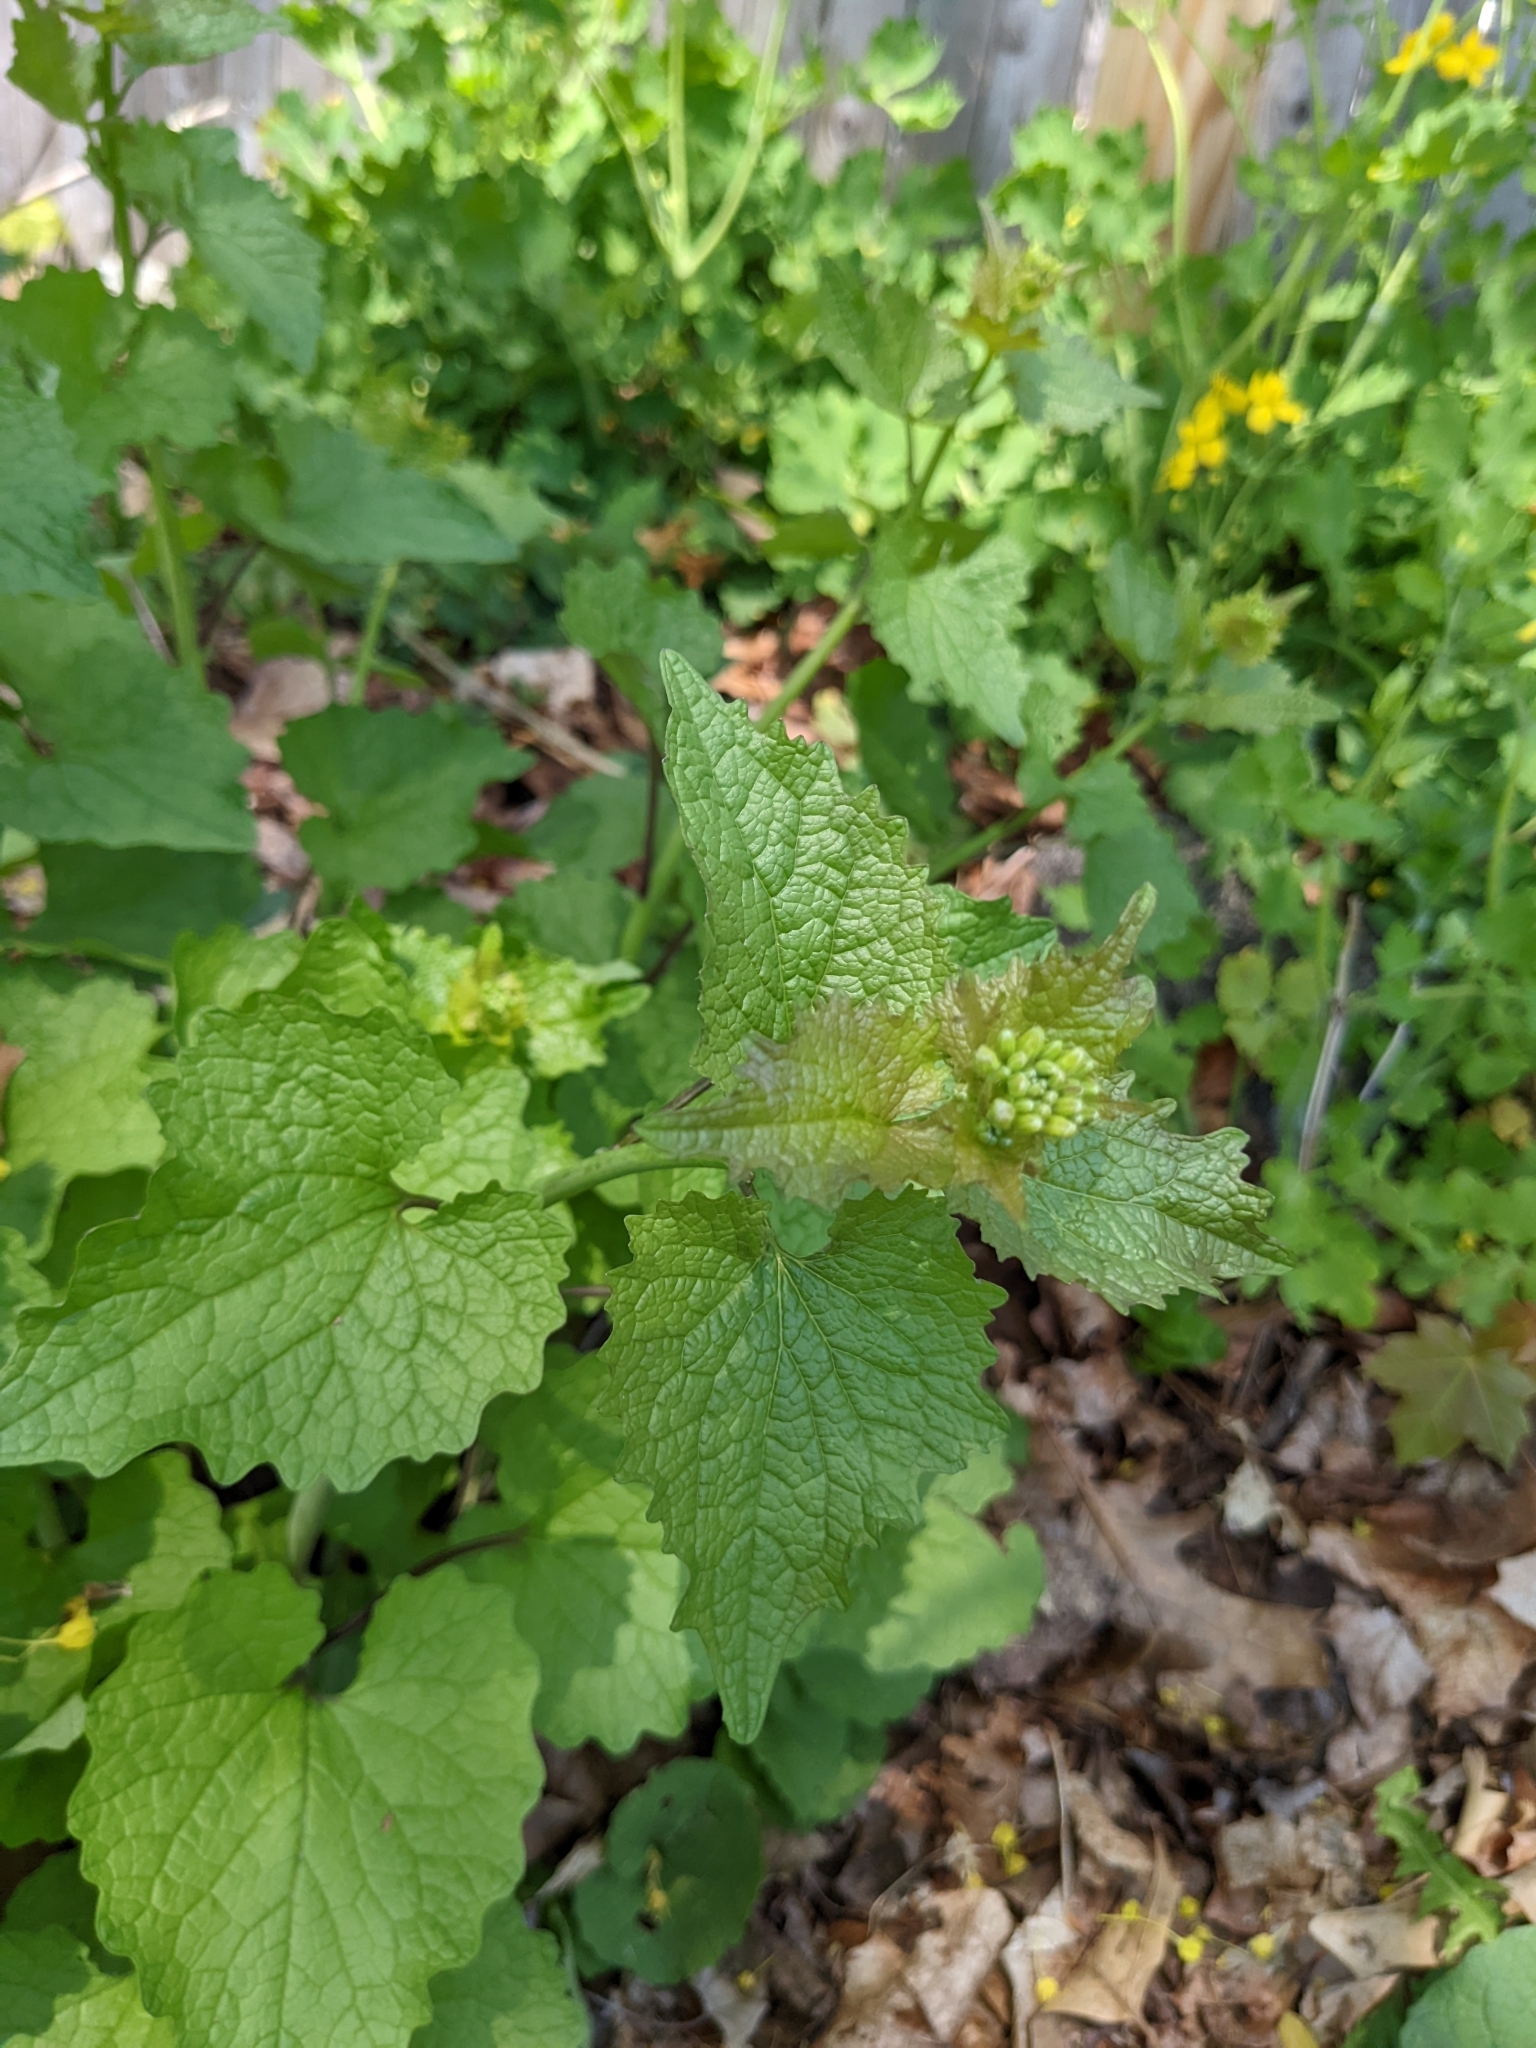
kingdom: Plantae
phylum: Tracheophyta
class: Magnoliopsida
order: Brassicales
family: Brassicaceae
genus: Alliaria
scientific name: Alliaria petiolata
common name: Garlic mustard
